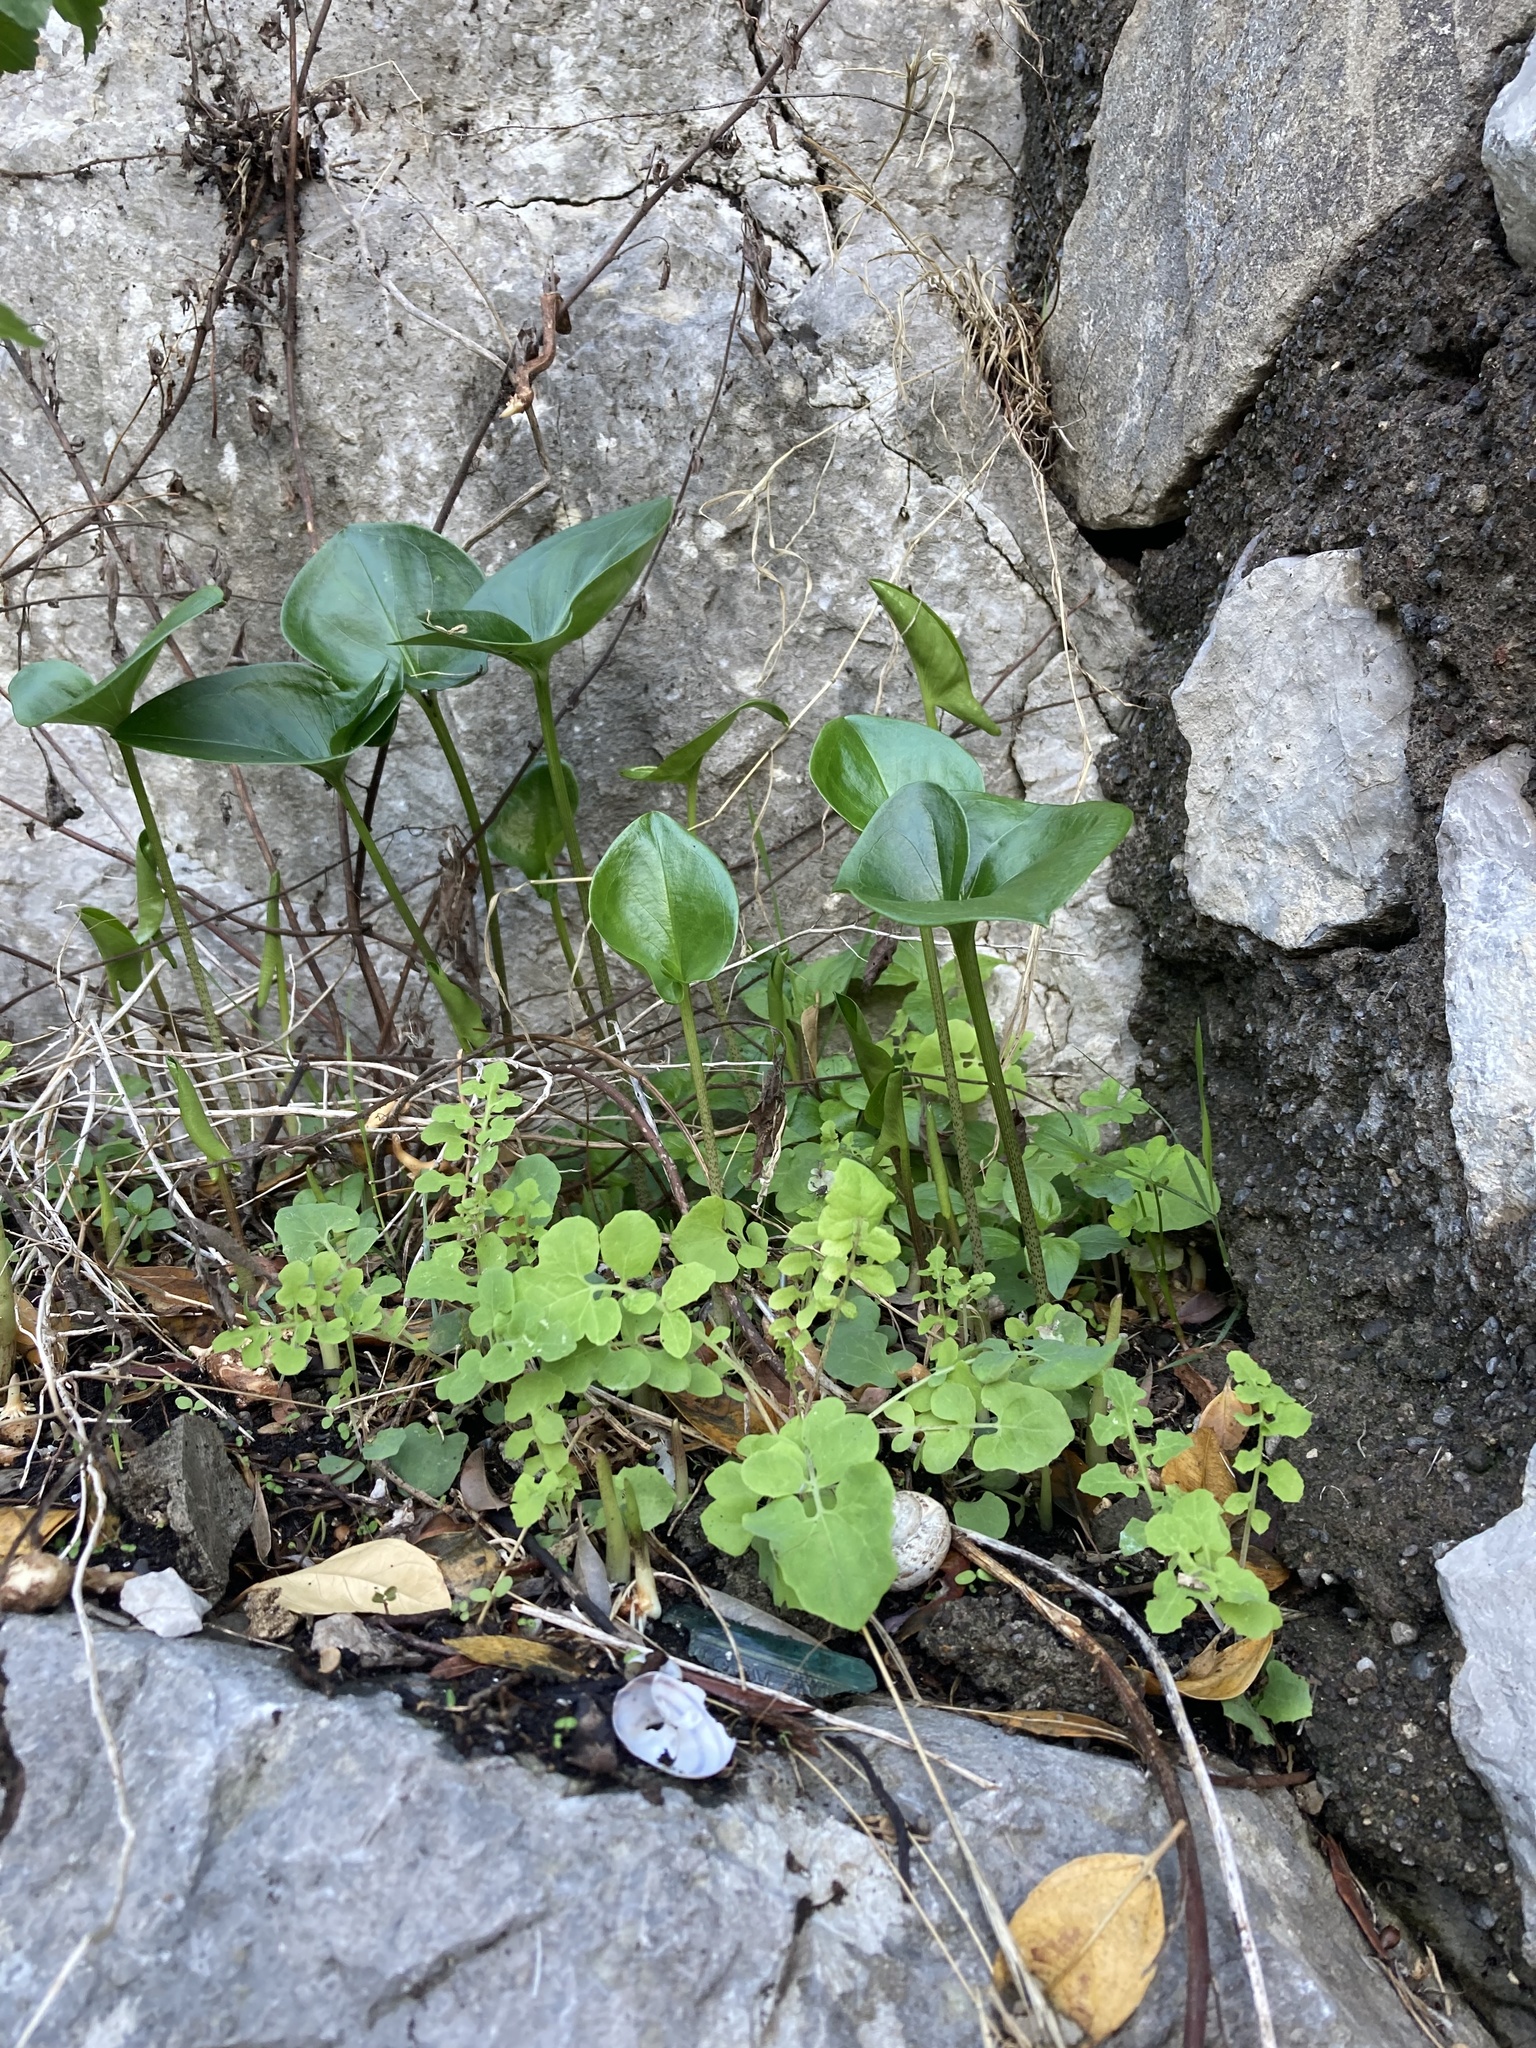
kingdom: Plantae
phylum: Tracheophyta
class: Liliopsida
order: Alismatales
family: Araceae
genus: Arisarum
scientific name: Arisarum vulgare
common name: Common arisarum
